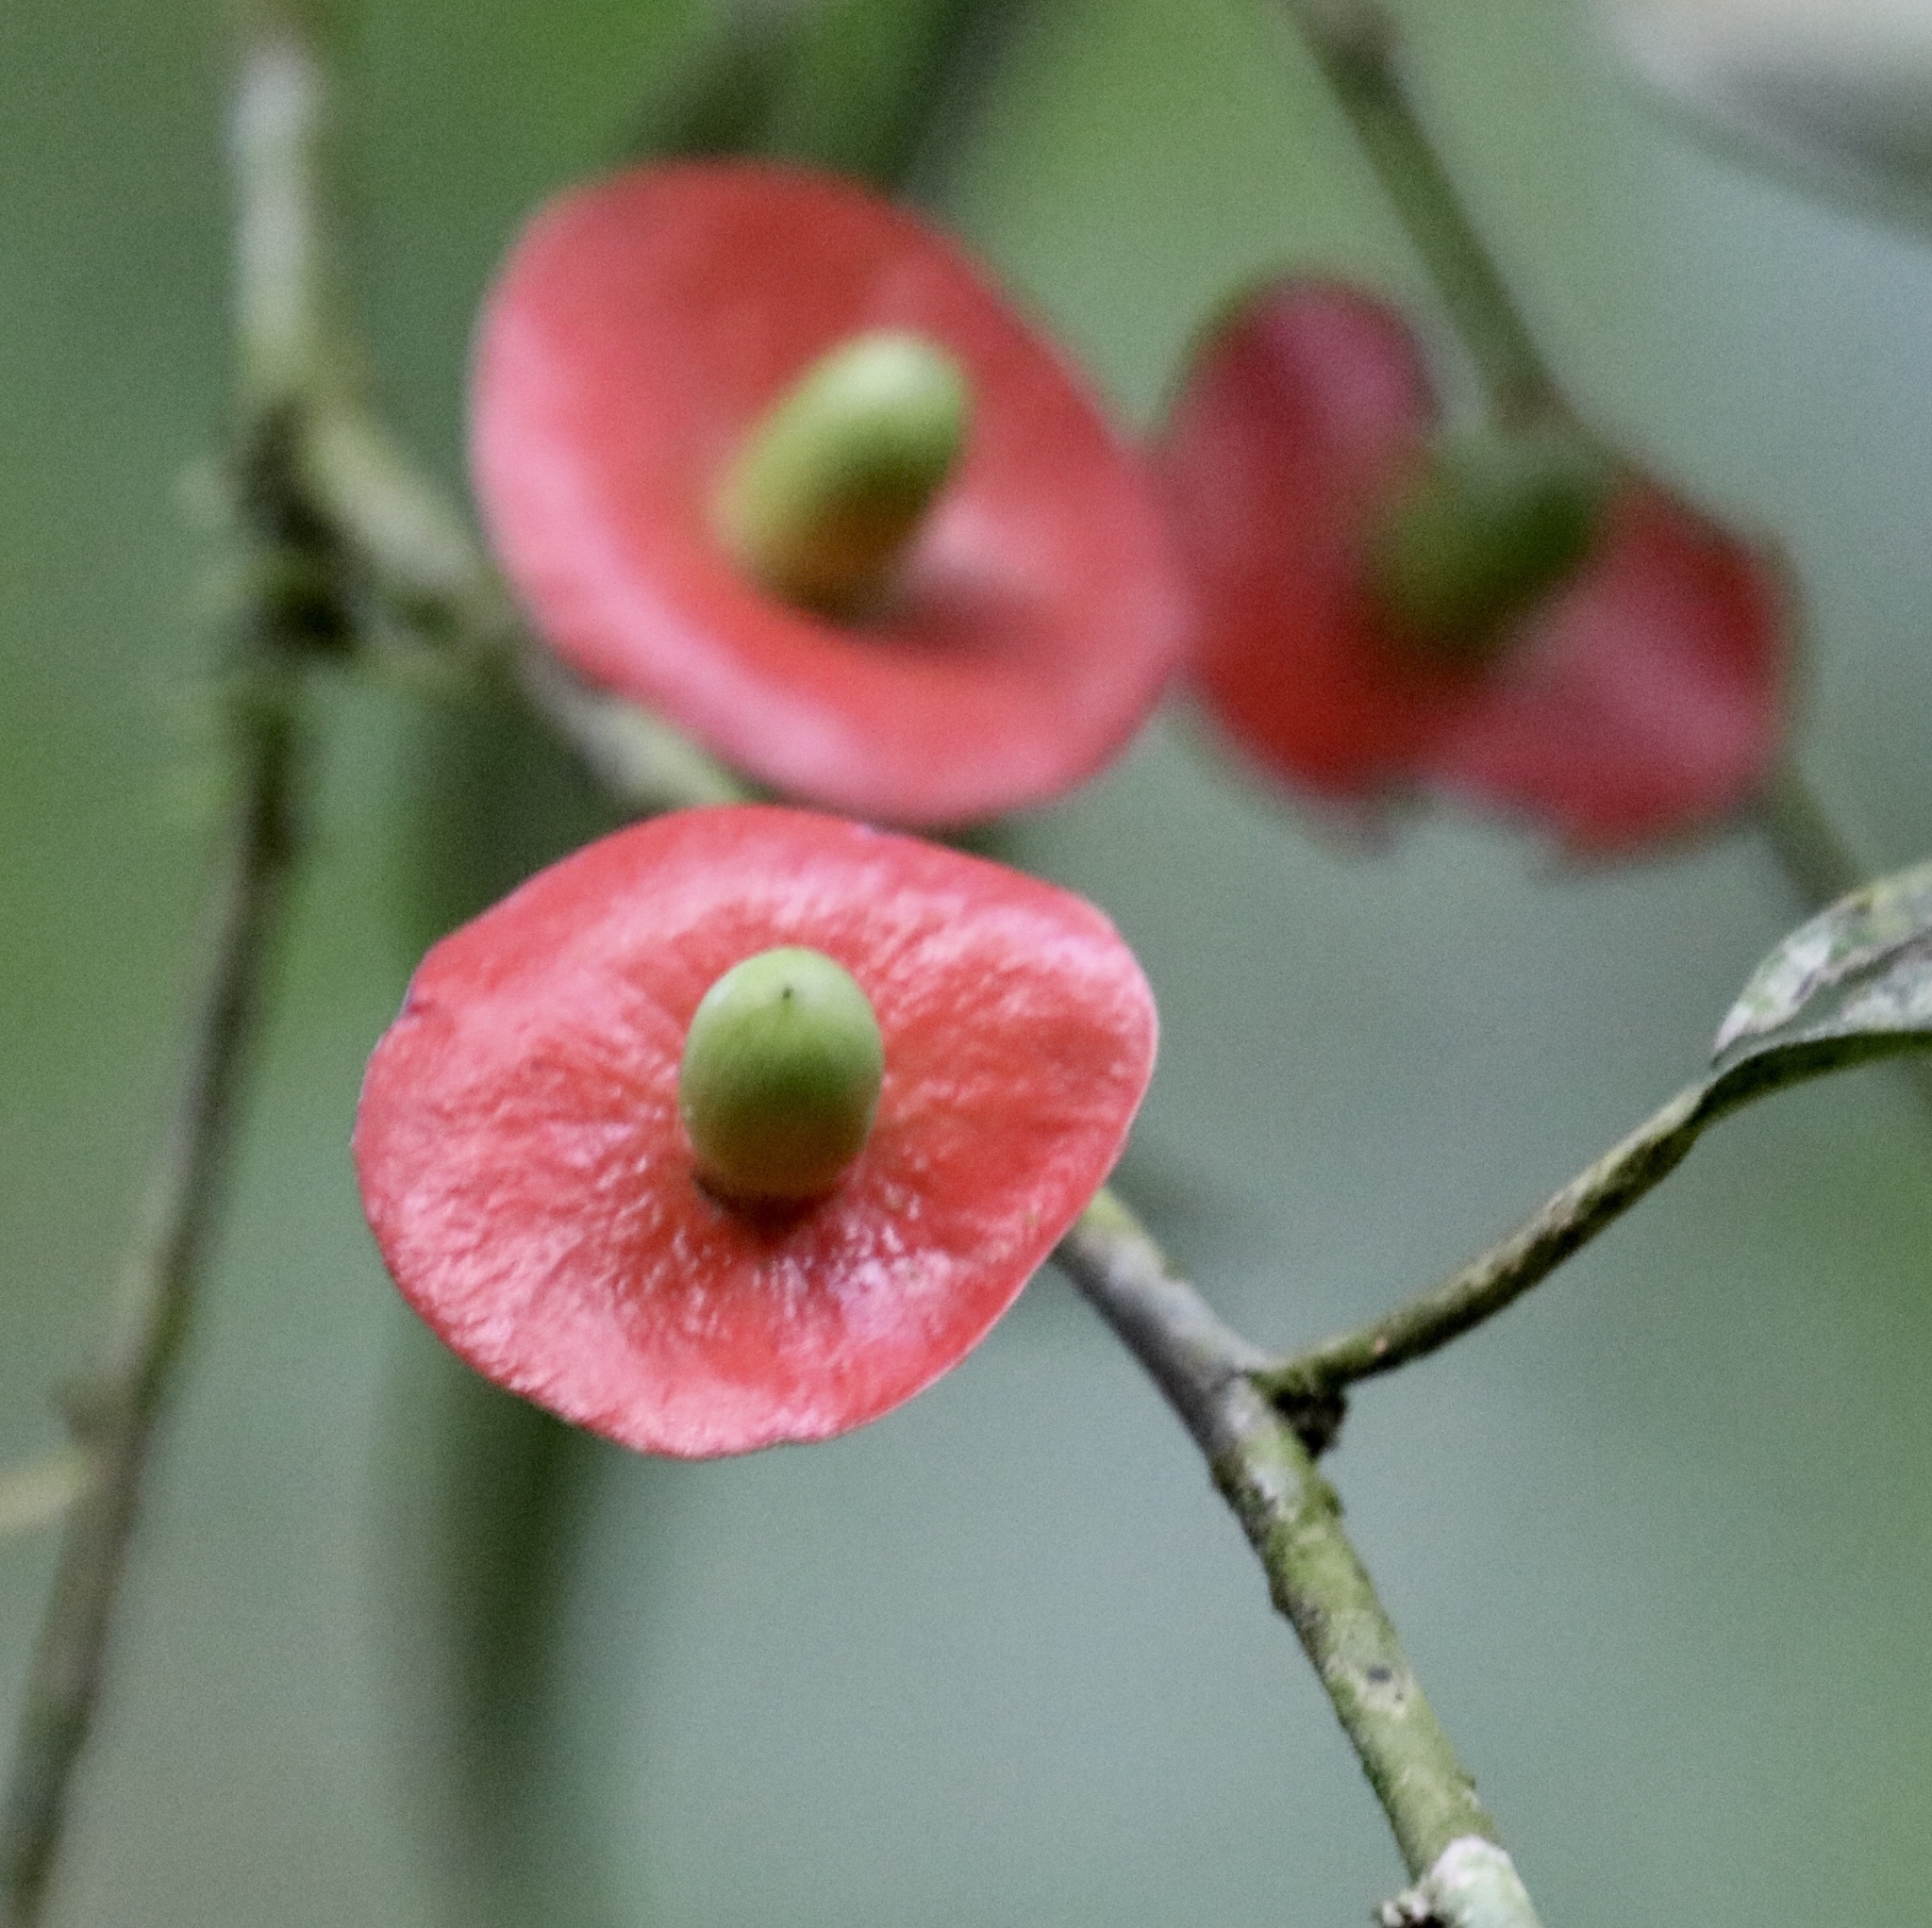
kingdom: Plantae
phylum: Tracheophyta
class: Magnoliopsida
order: Santalales
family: Erythropalaceae
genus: Heisteria
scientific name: Heisteria acuminata
